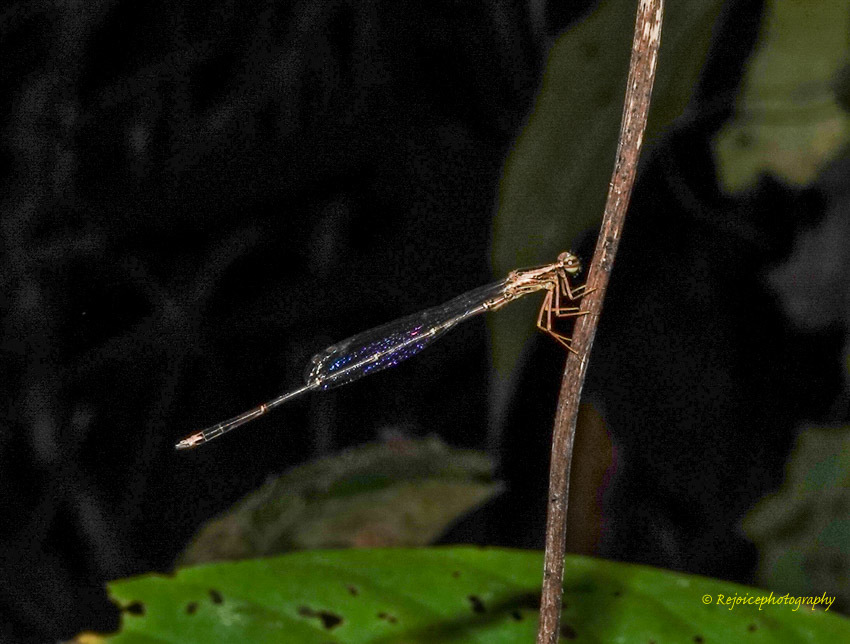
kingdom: Animalia
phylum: Arthropoda
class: Insecta
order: Odonata
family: Platycnemididae
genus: Copera
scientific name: Copera vittata
